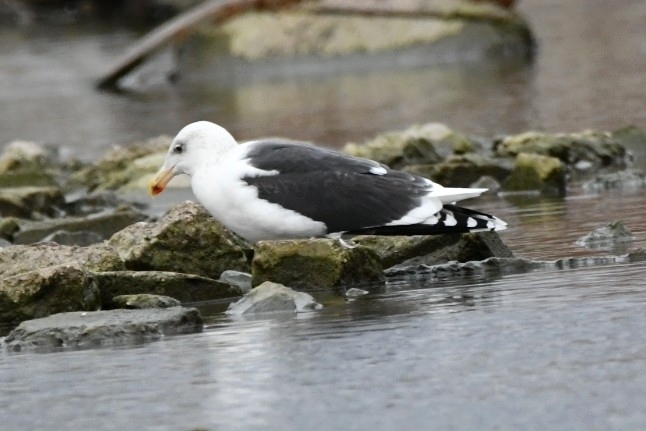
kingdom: Animalia
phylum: Chordata
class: Aves
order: Charadriiformes
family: Laridae
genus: Larus
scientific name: Larus marinus
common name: Great black-backed gull
